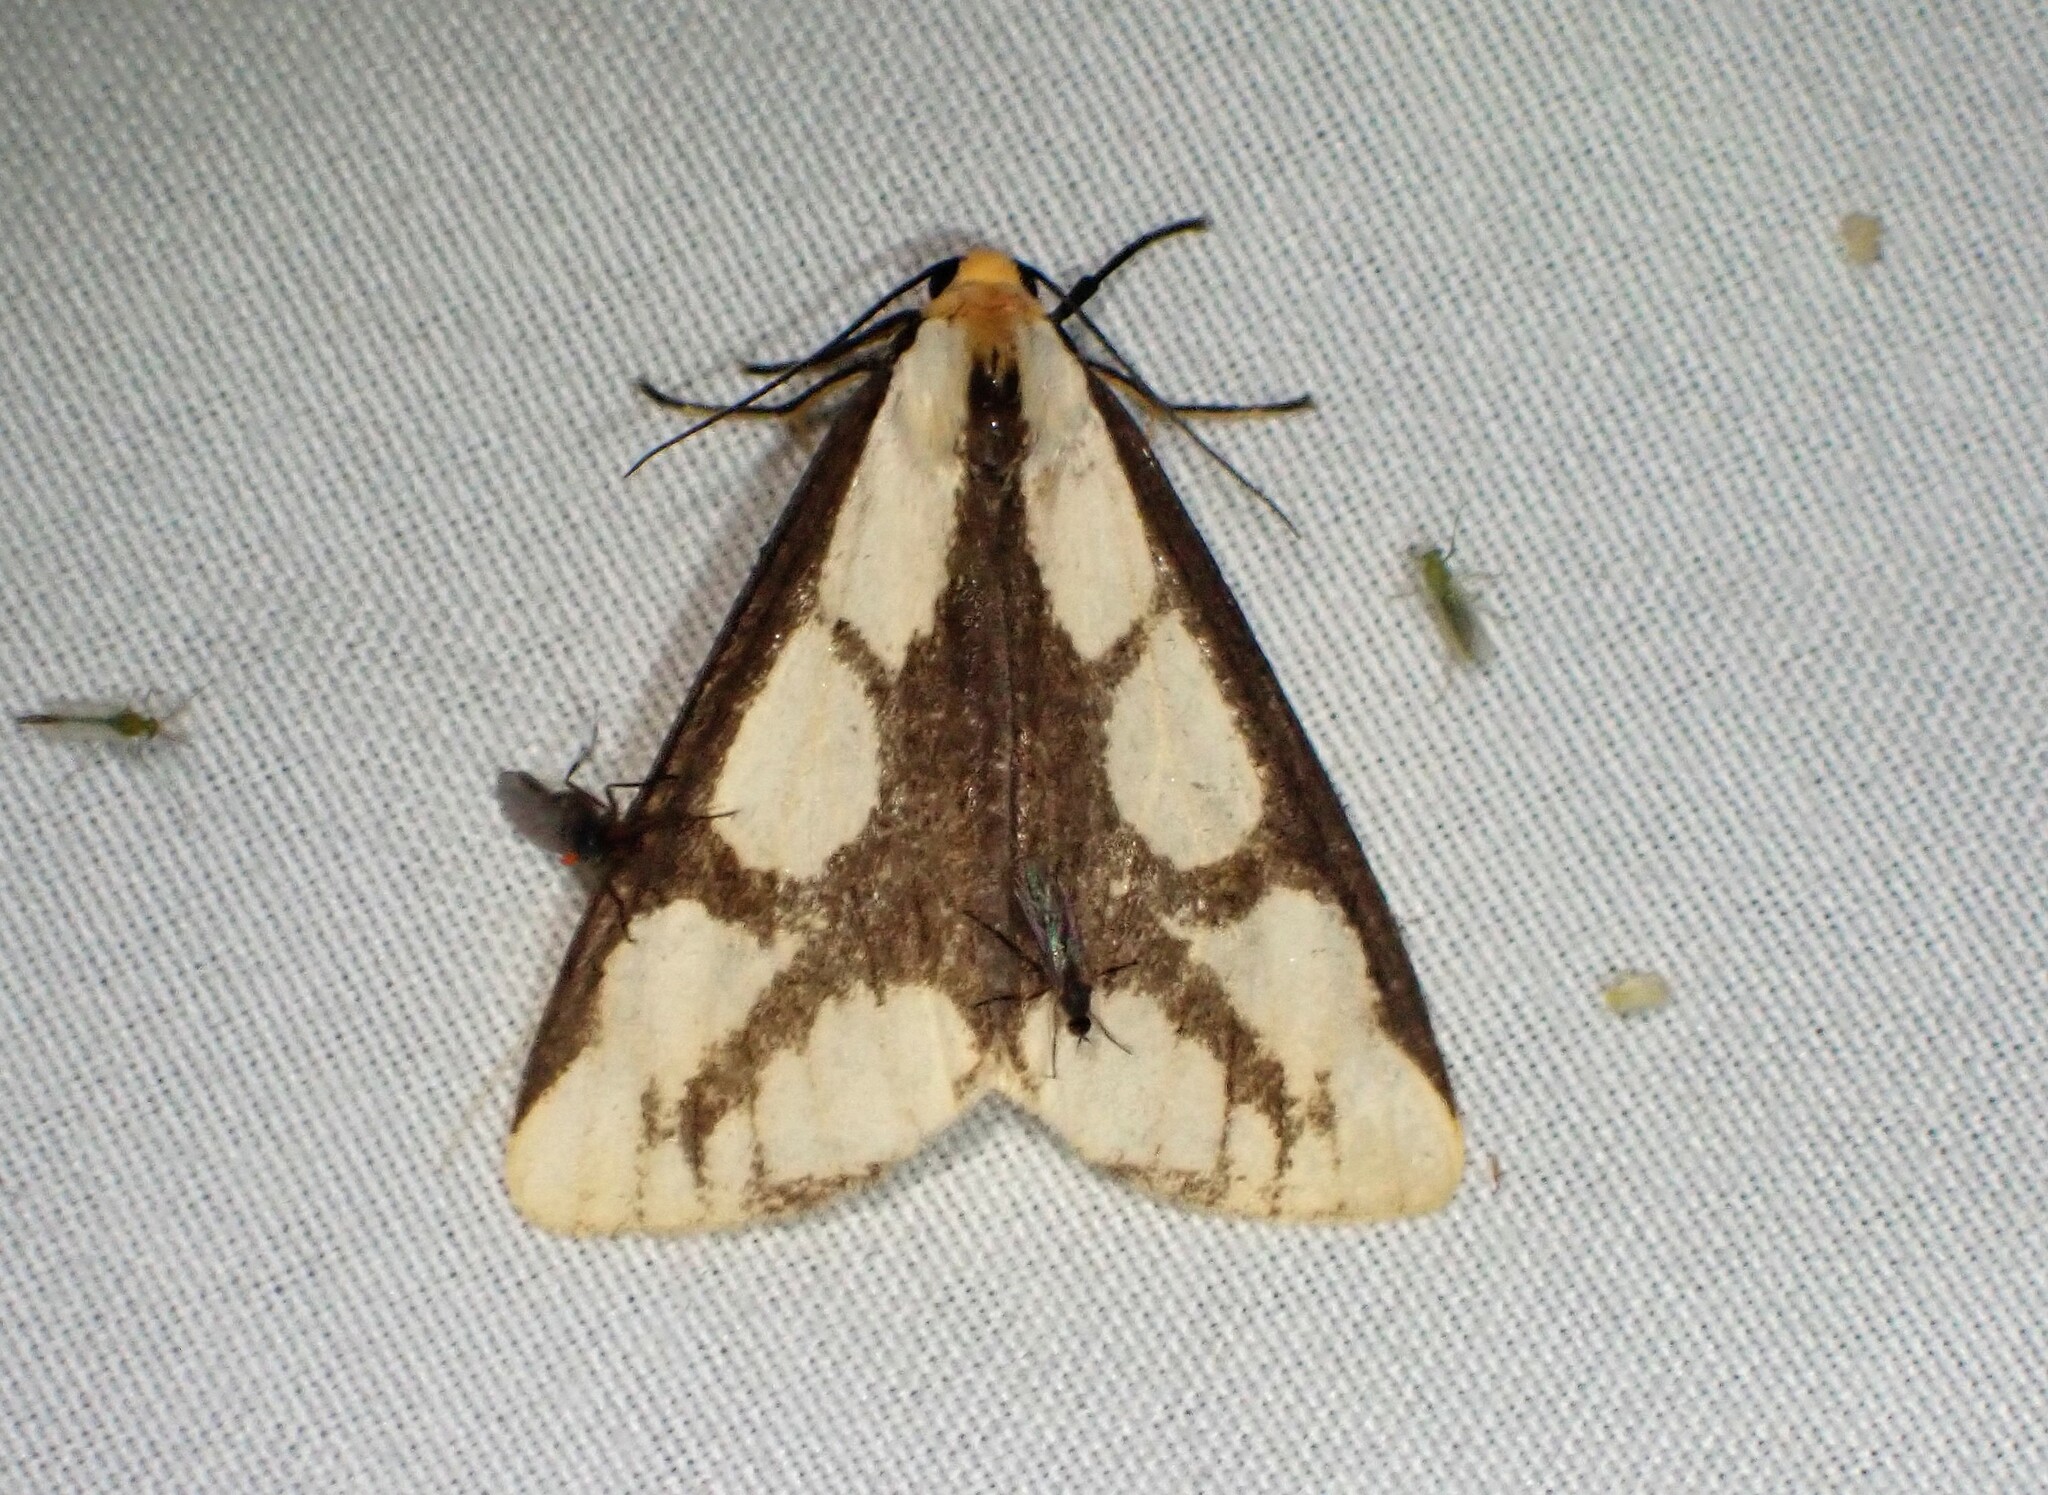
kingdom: Animalia
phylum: Arthropoda
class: Insecta
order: Lepidoptera
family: Erebidae
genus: Haploa
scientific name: Haploa lecontei
